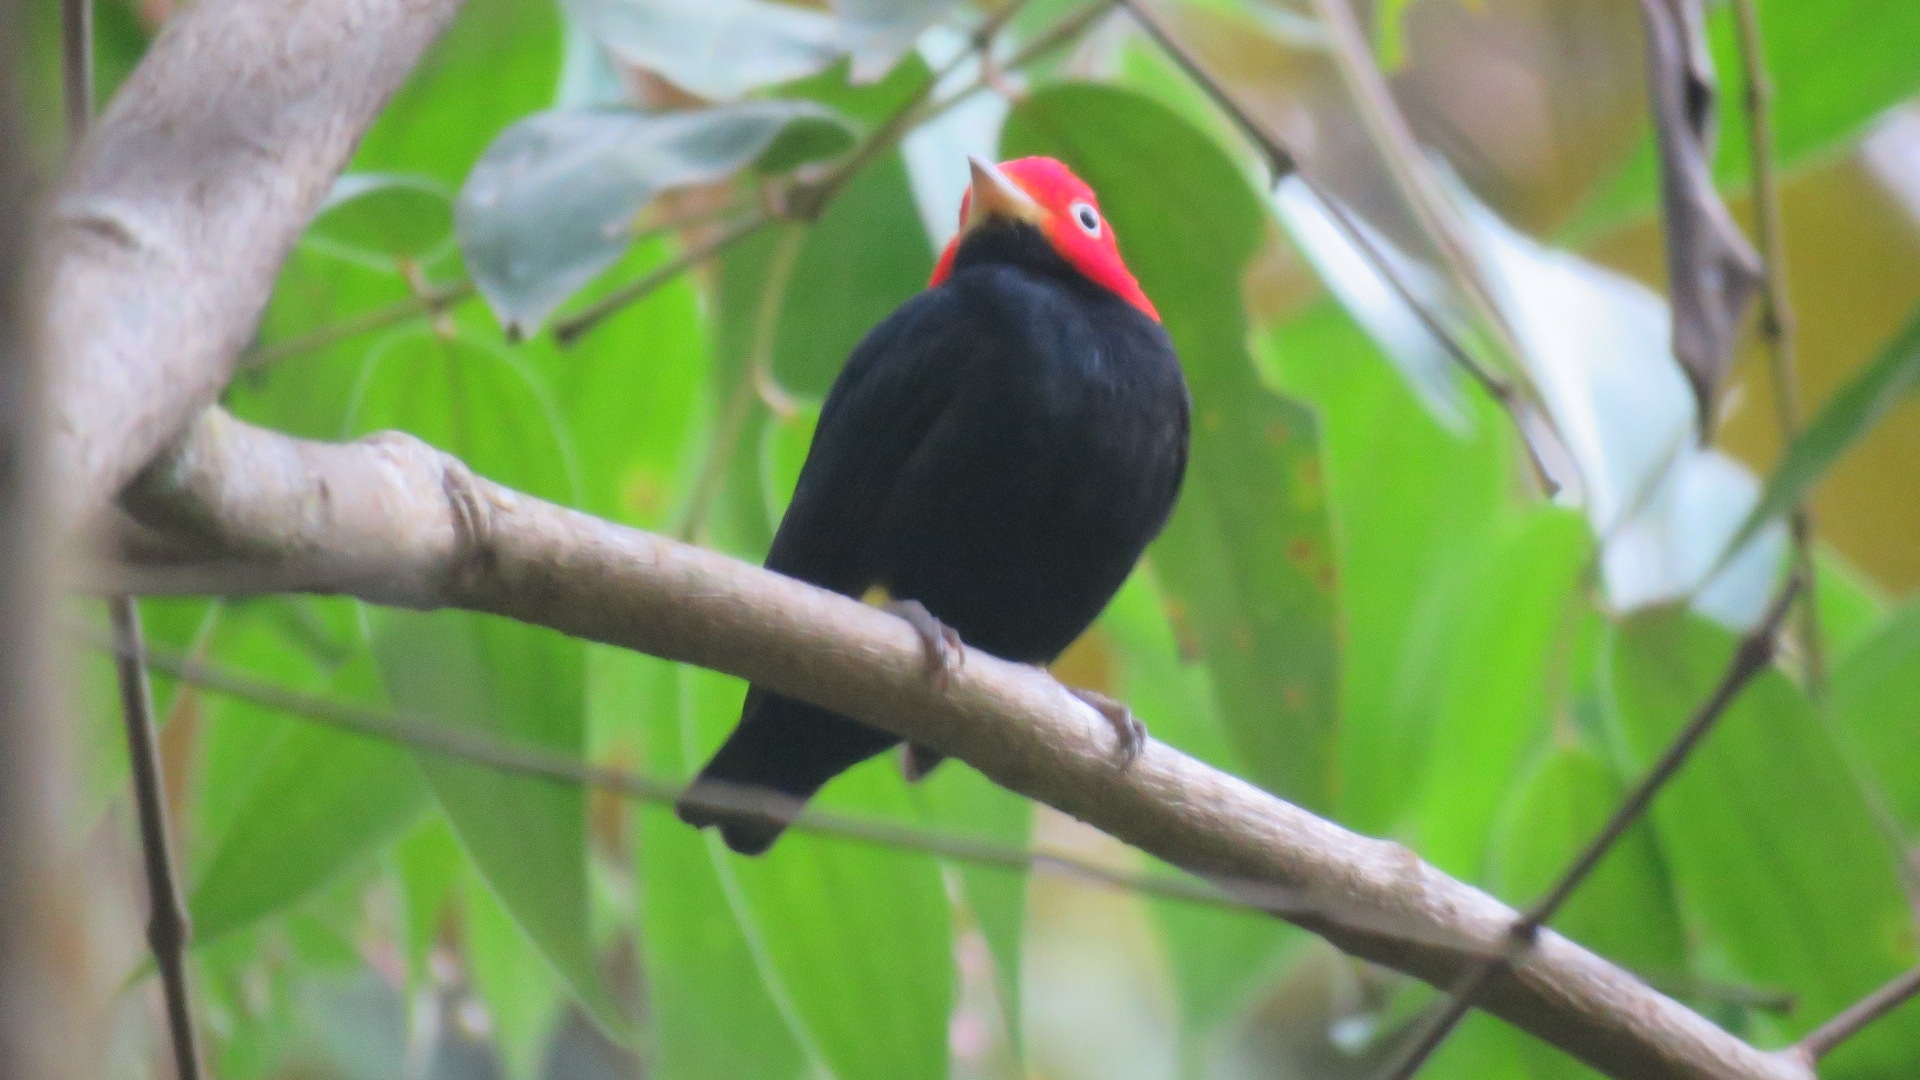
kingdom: Animalia
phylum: Chordata
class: Aves
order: Passeriformes
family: Pipridae
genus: Pipra
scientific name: Pipra mentalis
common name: Red-capped manakin
